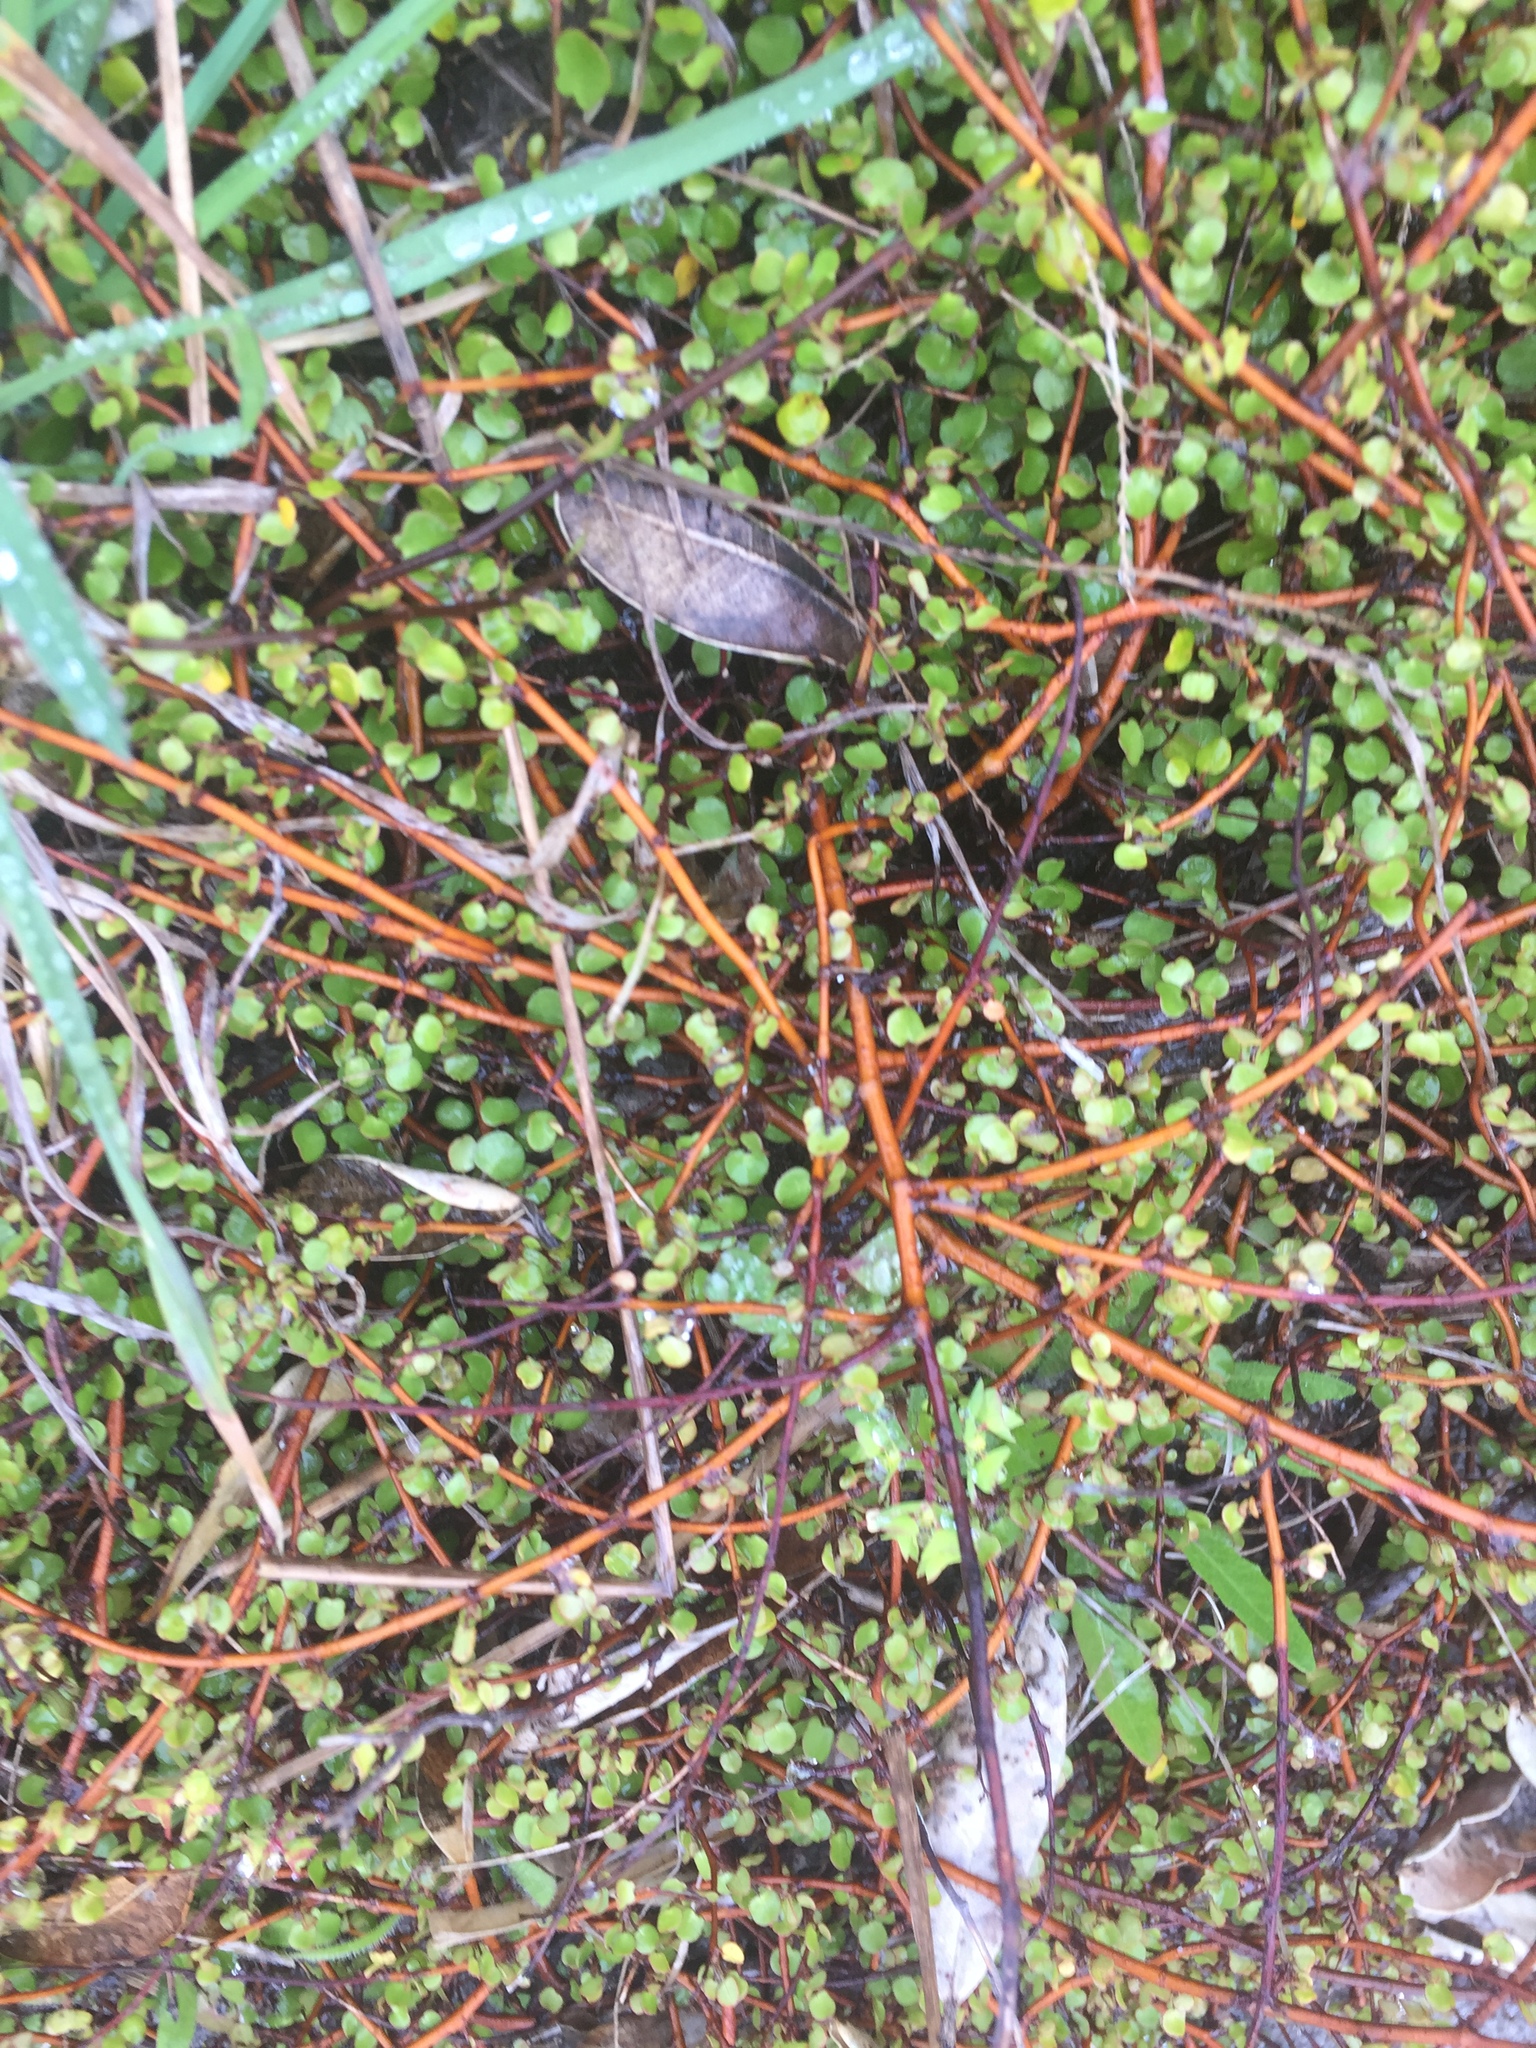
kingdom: Plantae
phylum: Tracheophyta
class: Magnoliopsida
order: Caryophyllales
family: Polygonaceae
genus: Muehlenbeckia
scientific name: Muehlenbeckia complexa
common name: Wireplant
